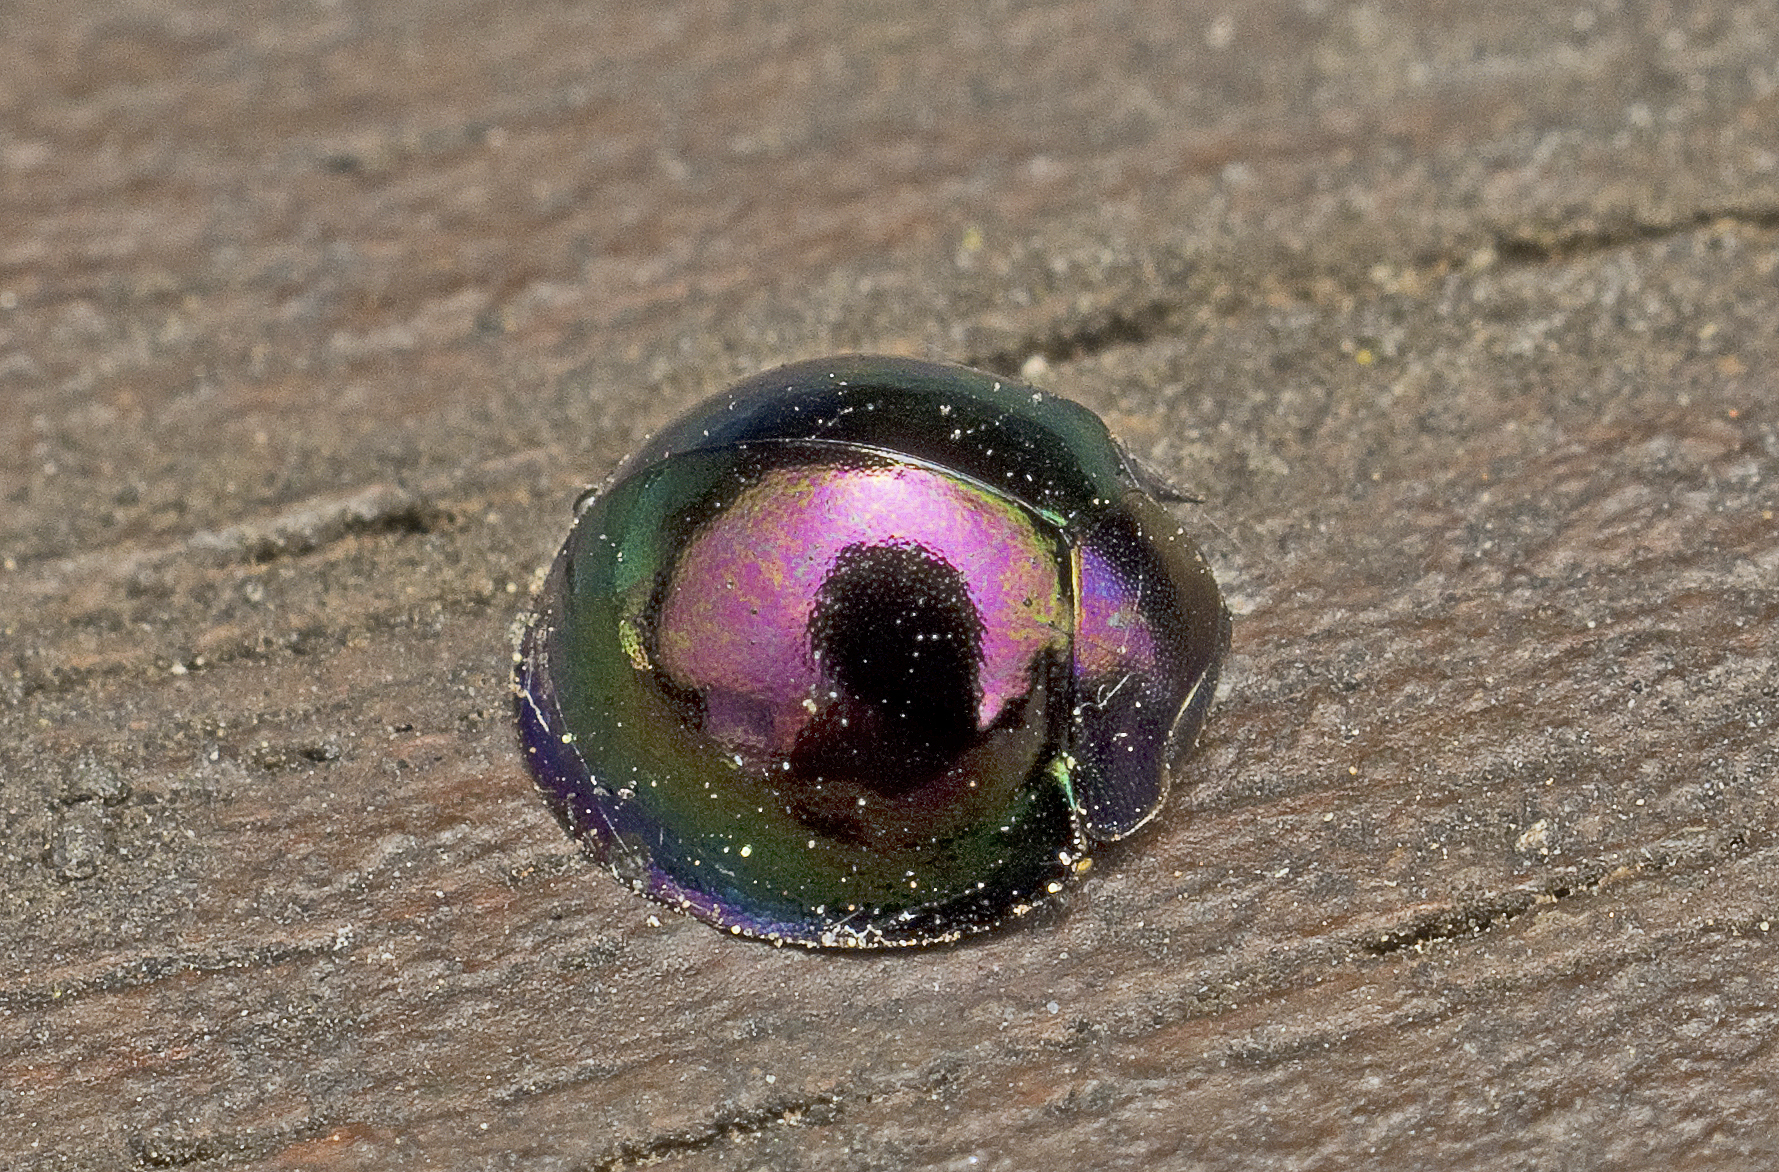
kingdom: Animalia
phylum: Arthropoda
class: Insecta
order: Coleoptera
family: Coccinellidae
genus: Halmus
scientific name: Halmus chalybeus
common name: Steel blue ladybird beetle
